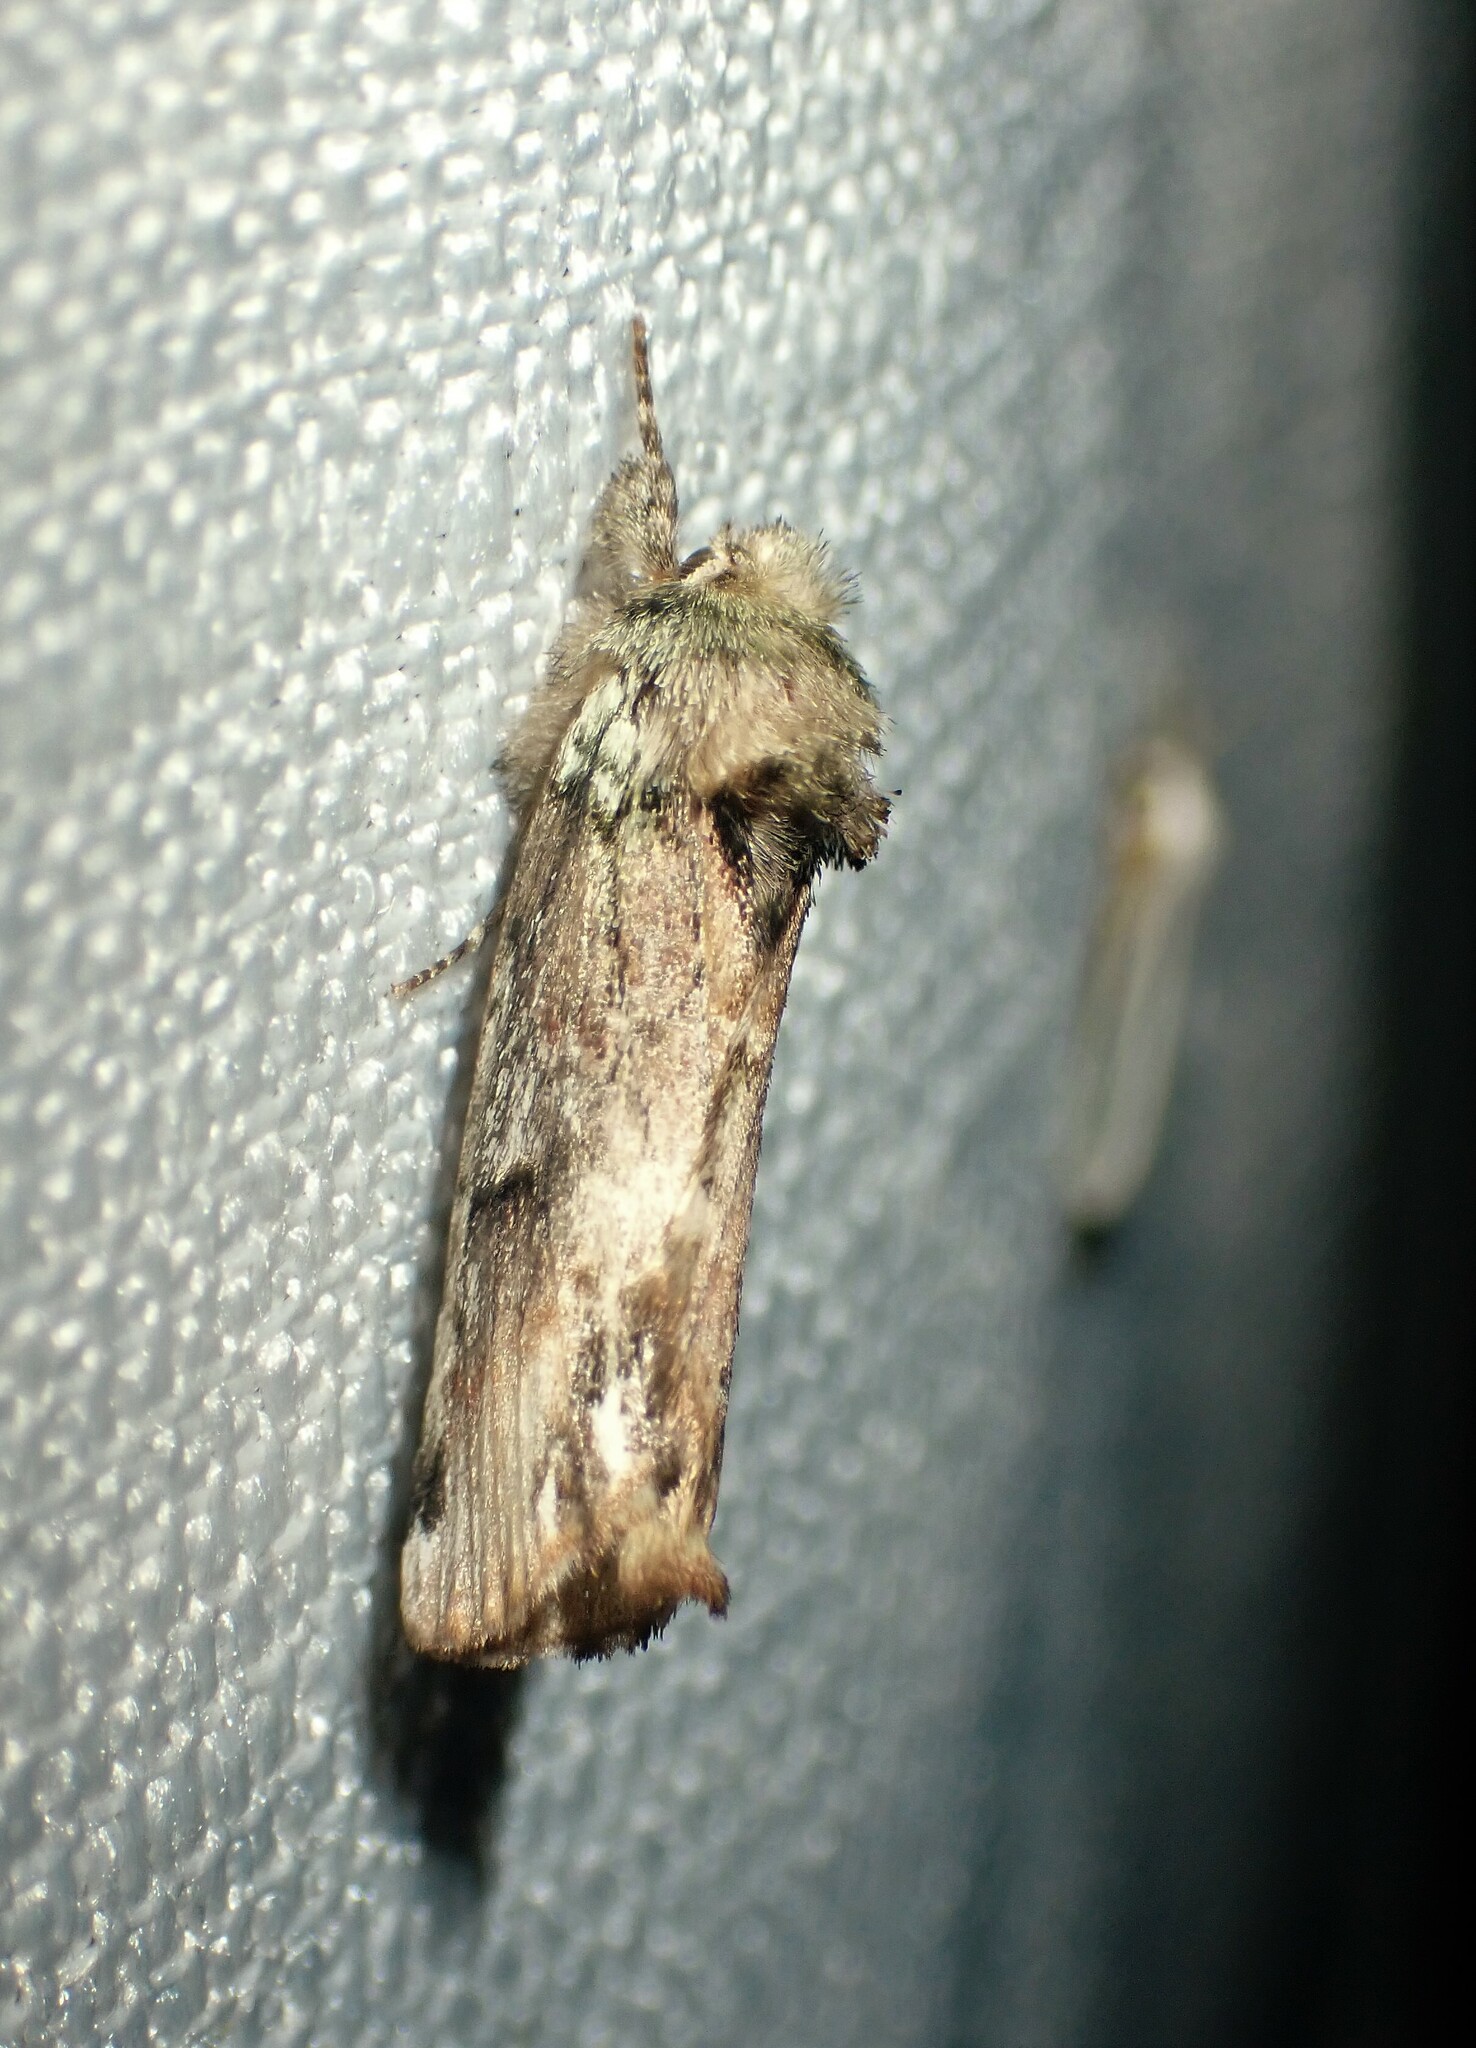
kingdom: Animalia
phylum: Arthropoda
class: Insecta
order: Lepidoptera
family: Notodontidae
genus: Schizura
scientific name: Schizura
